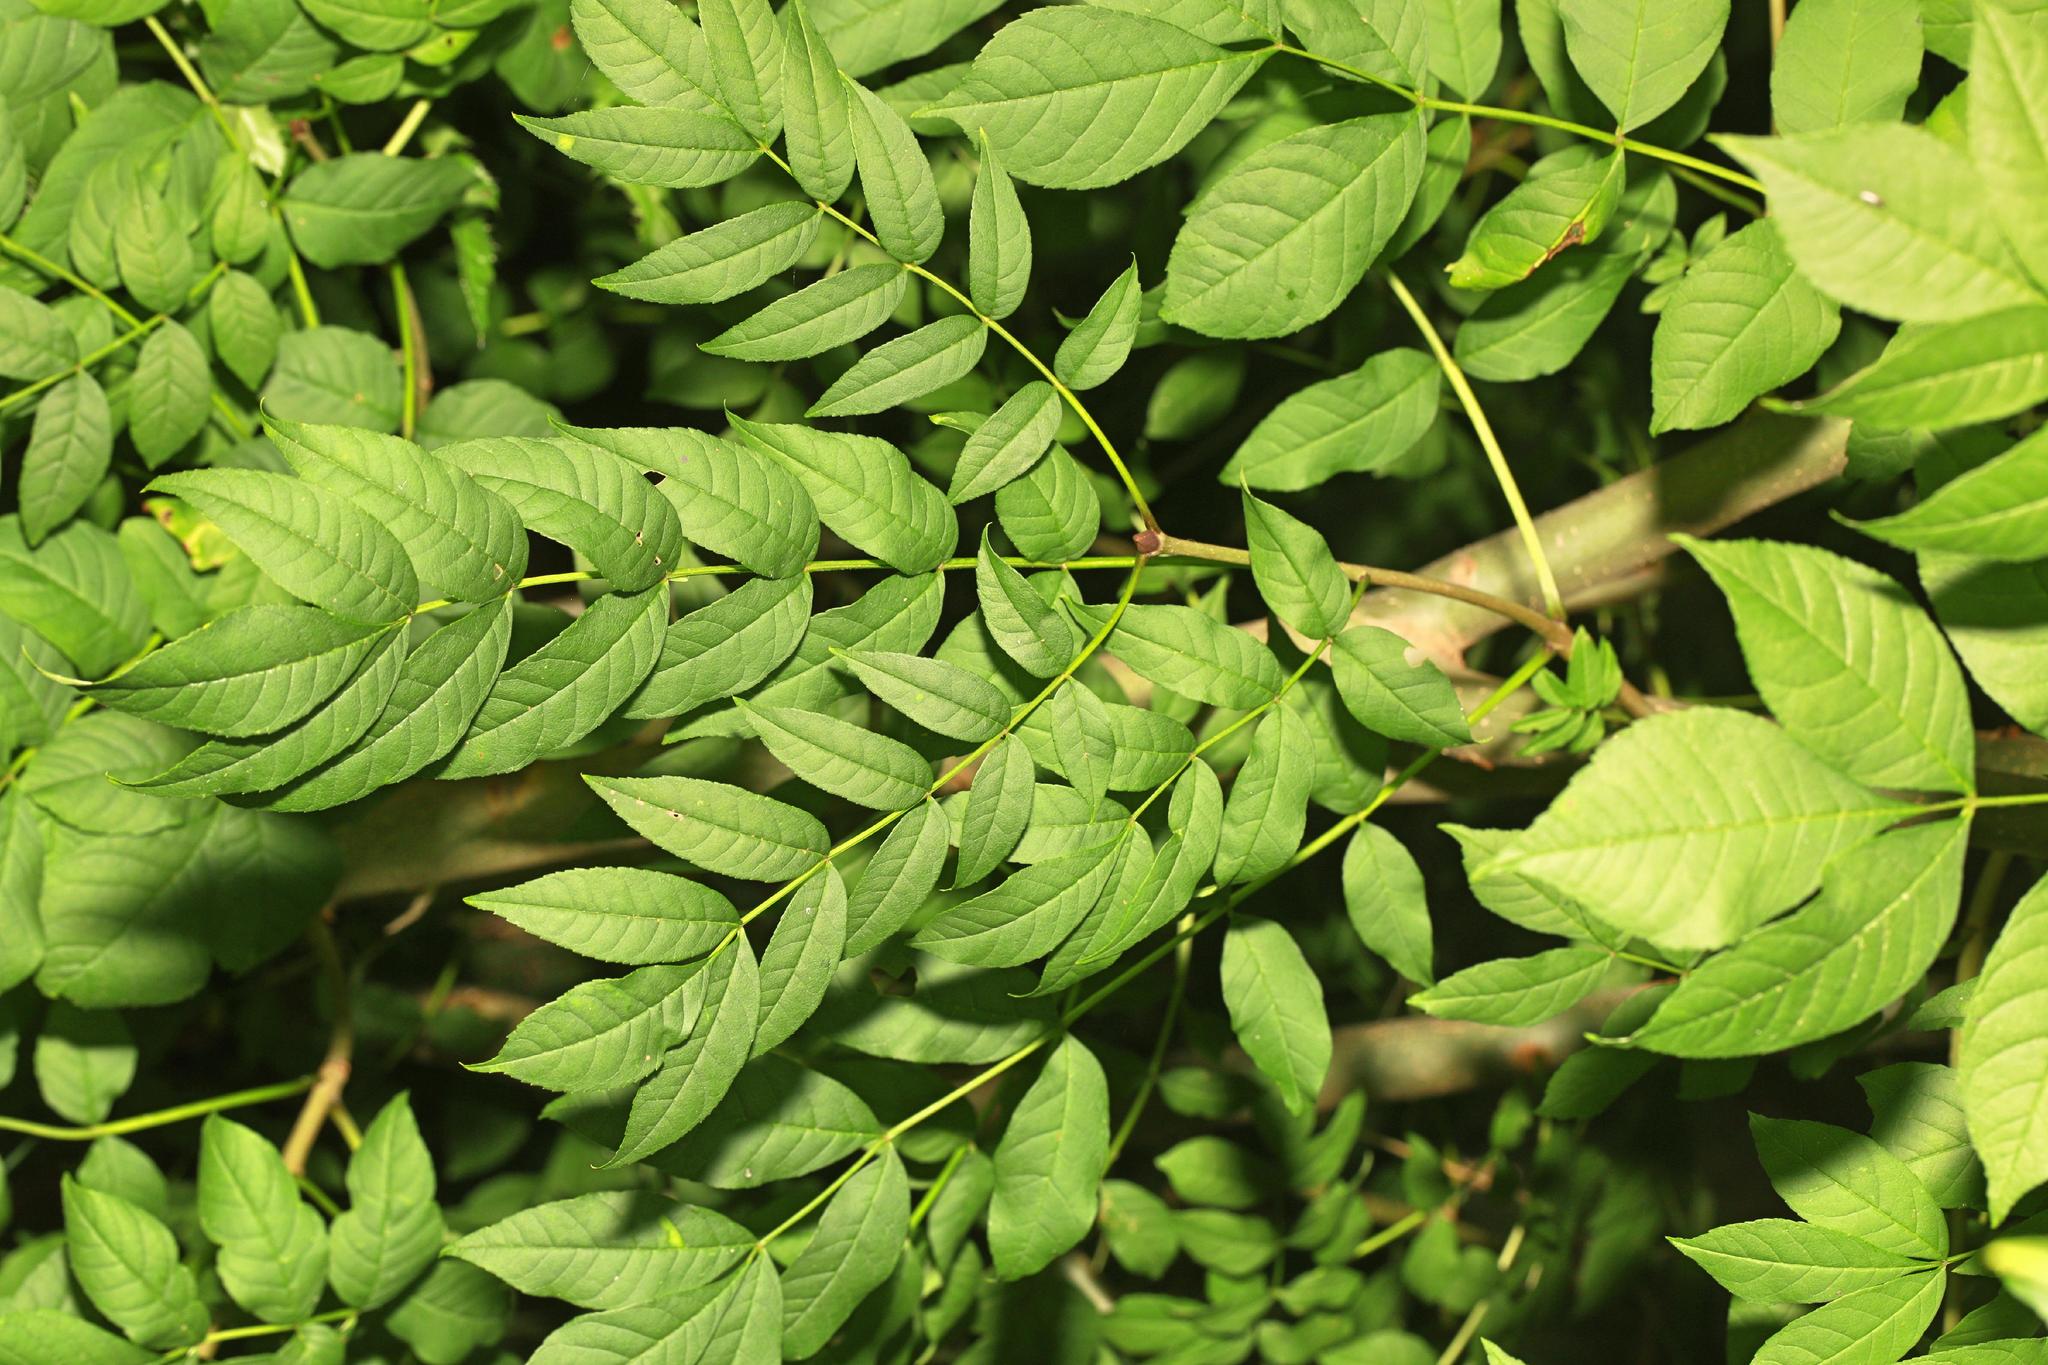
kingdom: Plantae
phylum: Tracheophyta
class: Magnoliopsida
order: Lamiales
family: Oleaceae
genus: Fraxinus
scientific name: Fraxinus excelsior
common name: European ash
